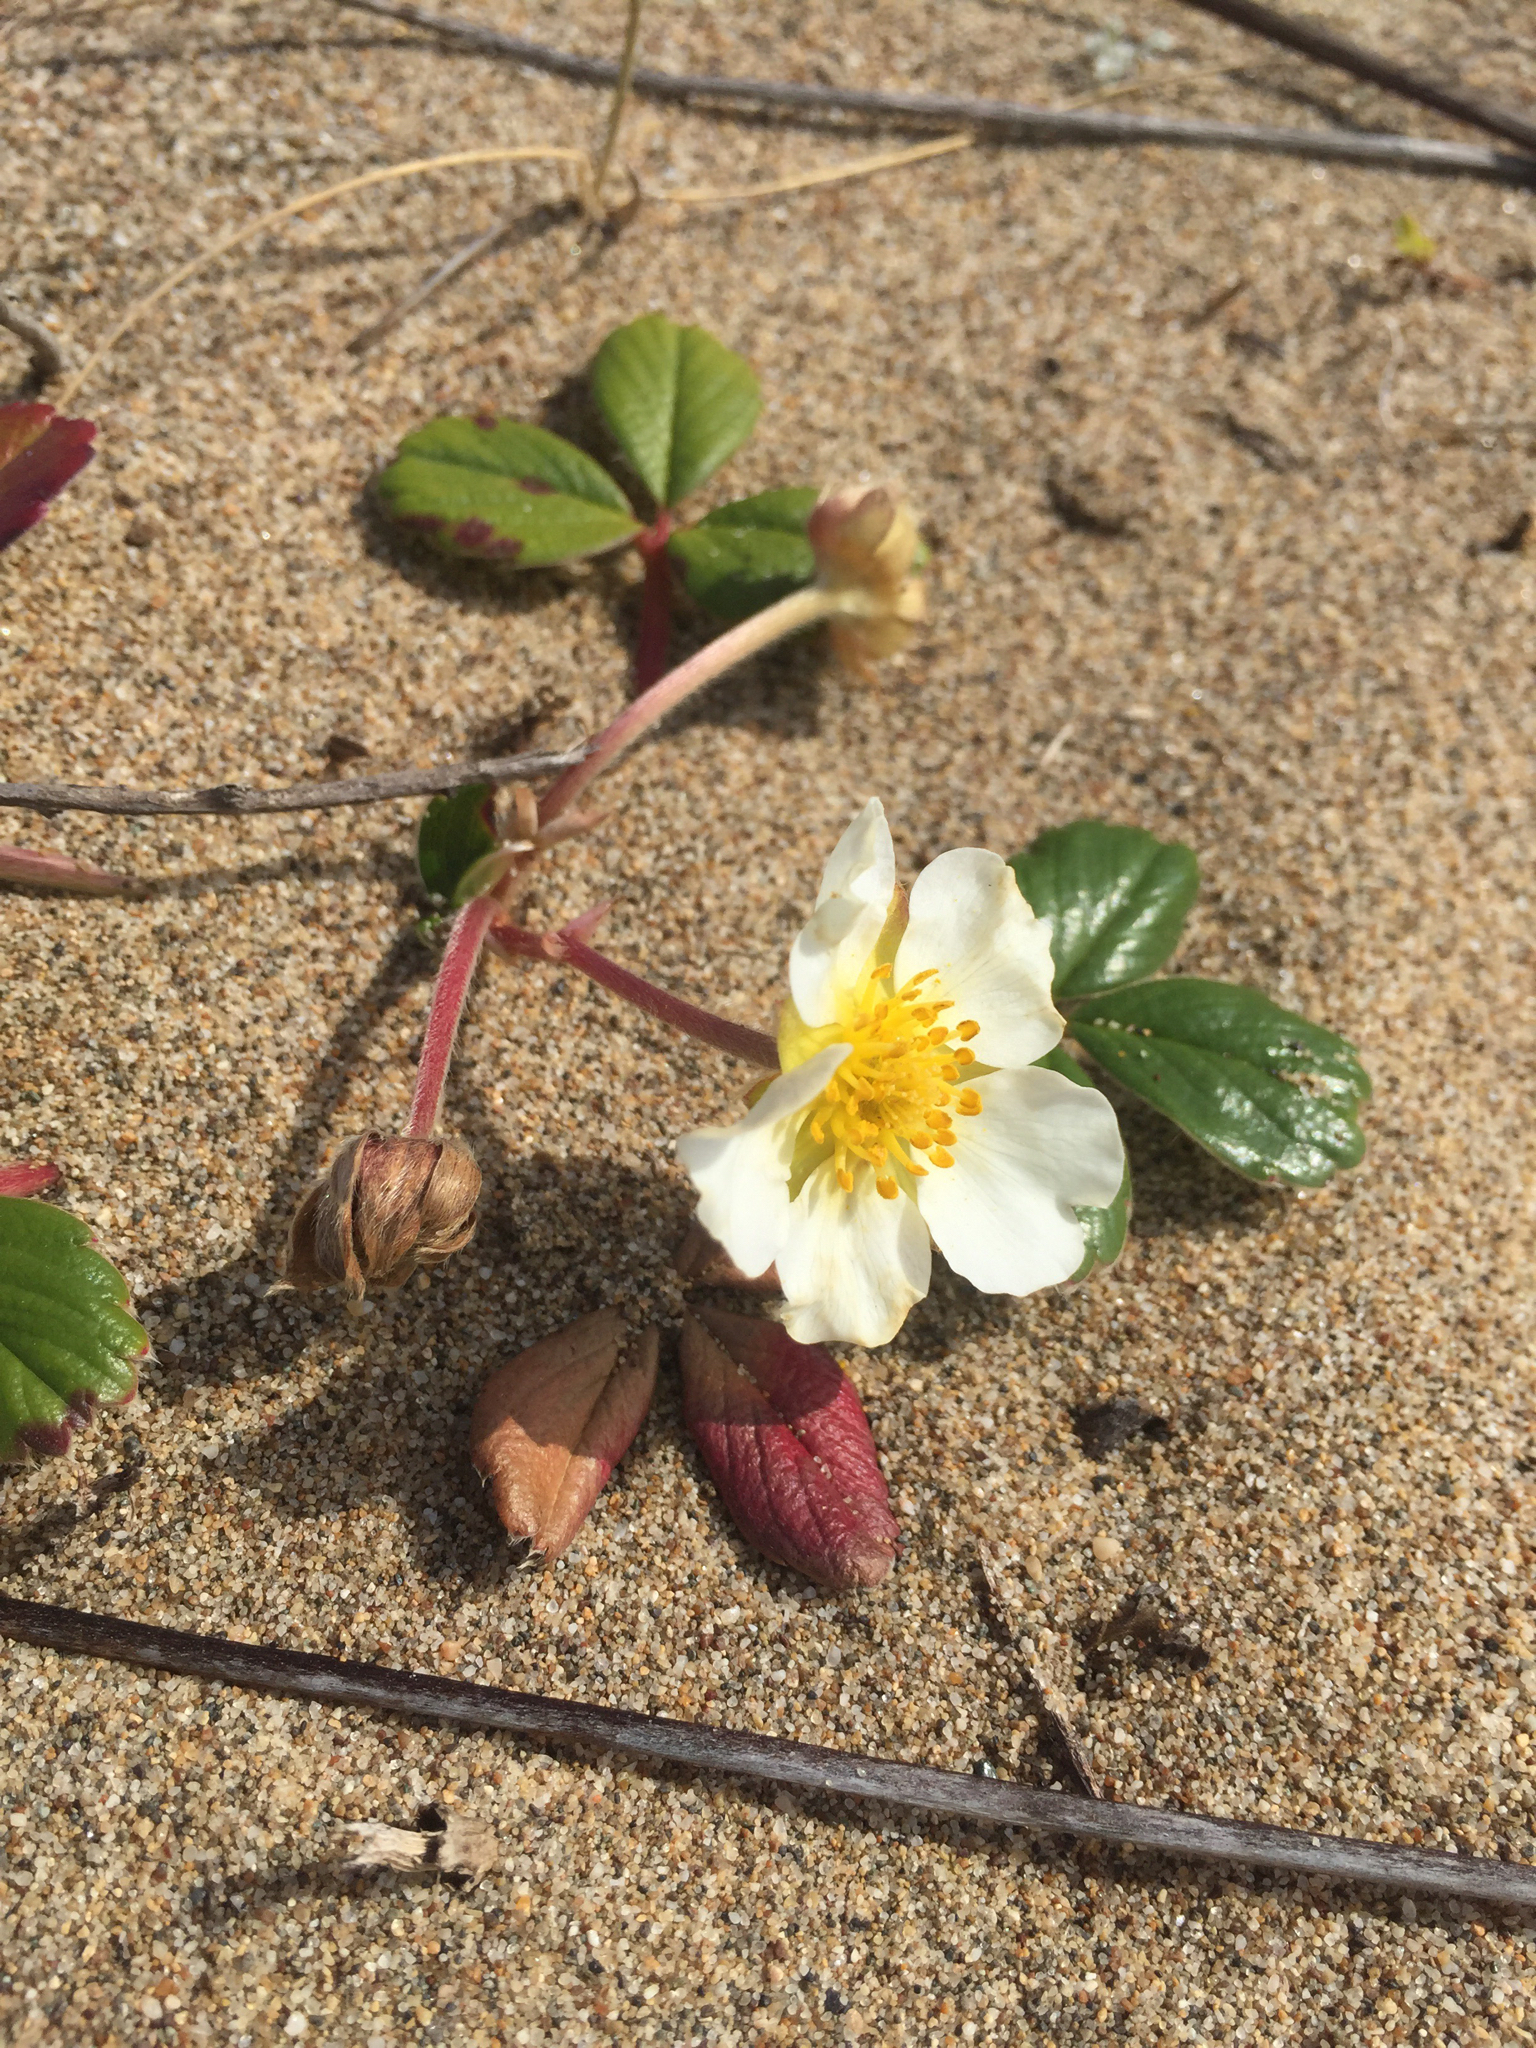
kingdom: Plantae
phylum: Tracheophyta
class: Magnoliopsida
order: Rosales
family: Rosaceae
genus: Fragaria
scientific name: Fragaria chiloensis
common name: Beach strawberry
